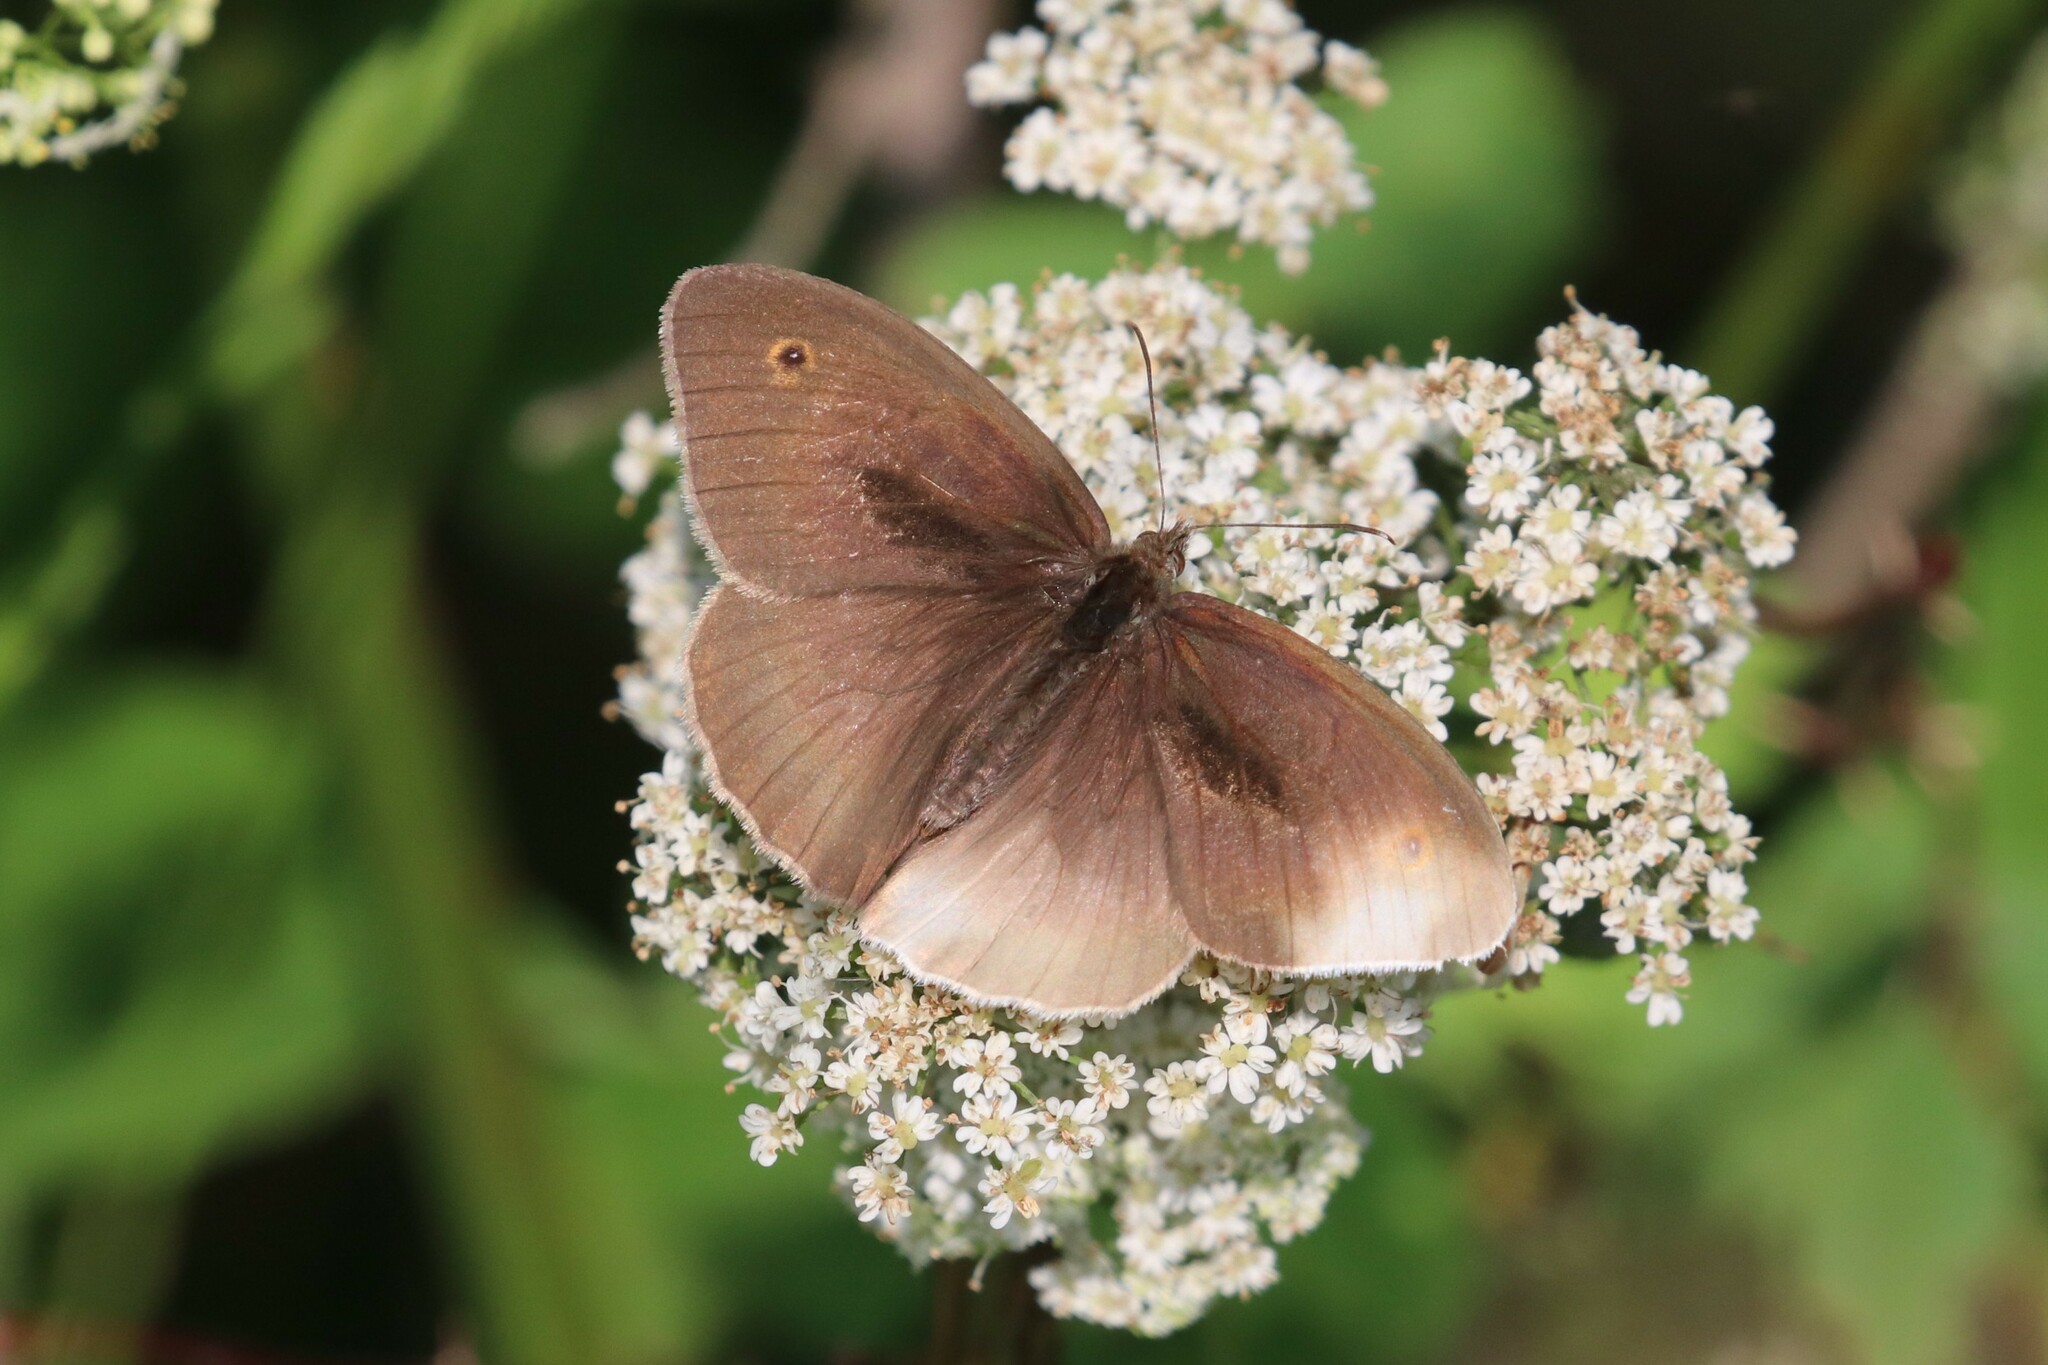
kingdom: Animalia
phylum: Arthropoda
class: Insecta
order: Lepidoptera
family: Nymphalidae
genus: Maniola
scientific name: Maniola jurtina
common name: Meadow brown
